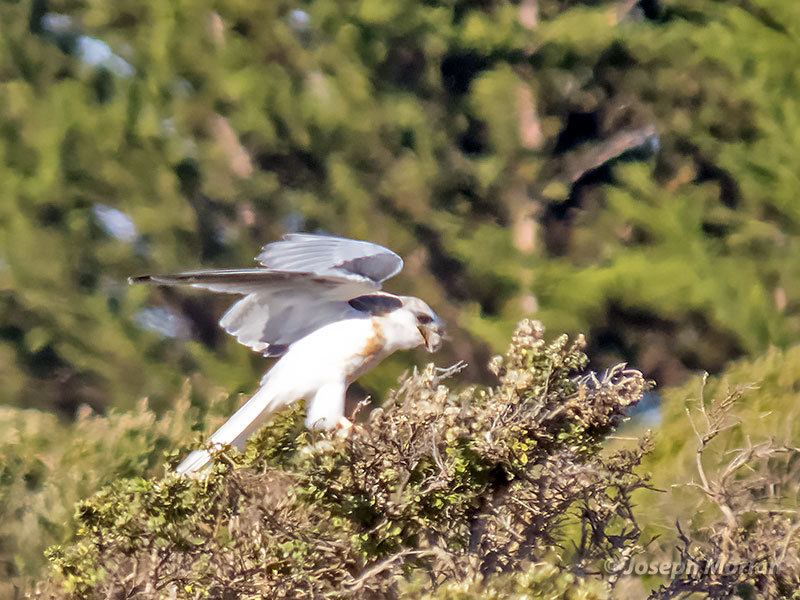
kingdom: Animalia
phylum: Chordata
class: Aves
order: Accipitriformes
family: Accipitridae
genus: Elanus
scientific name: Elanus leucurus
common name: White-tailed kite
